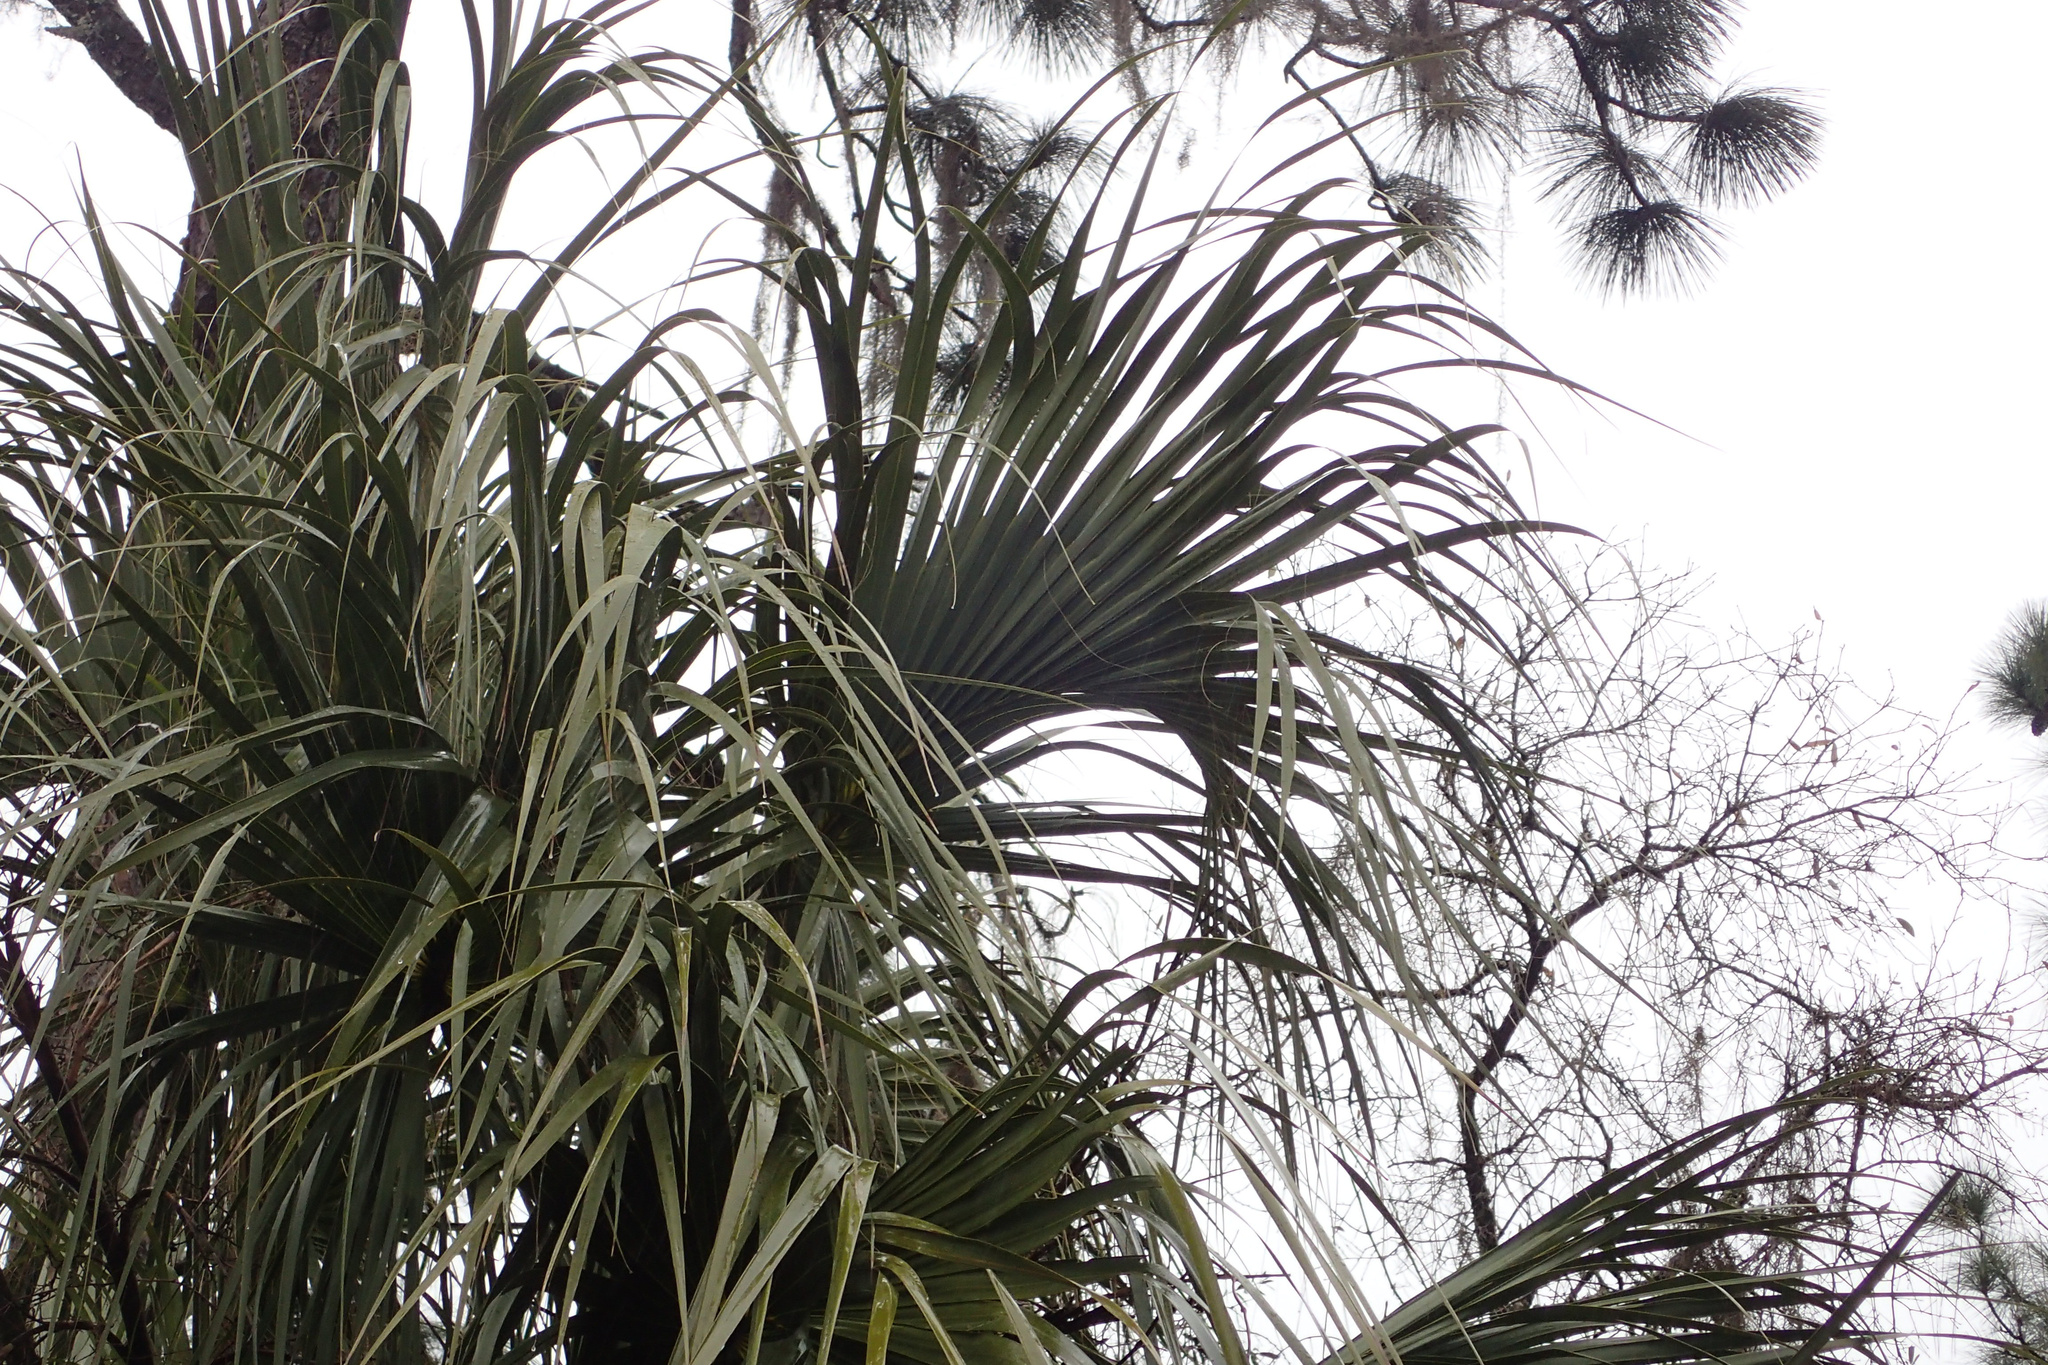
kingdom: Plantae
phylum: Tracheophyta
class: Liliopsida
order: Arecales
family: Arecaceae
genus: Sabal
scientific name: Sabal palmetto
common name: Blue palmetto
